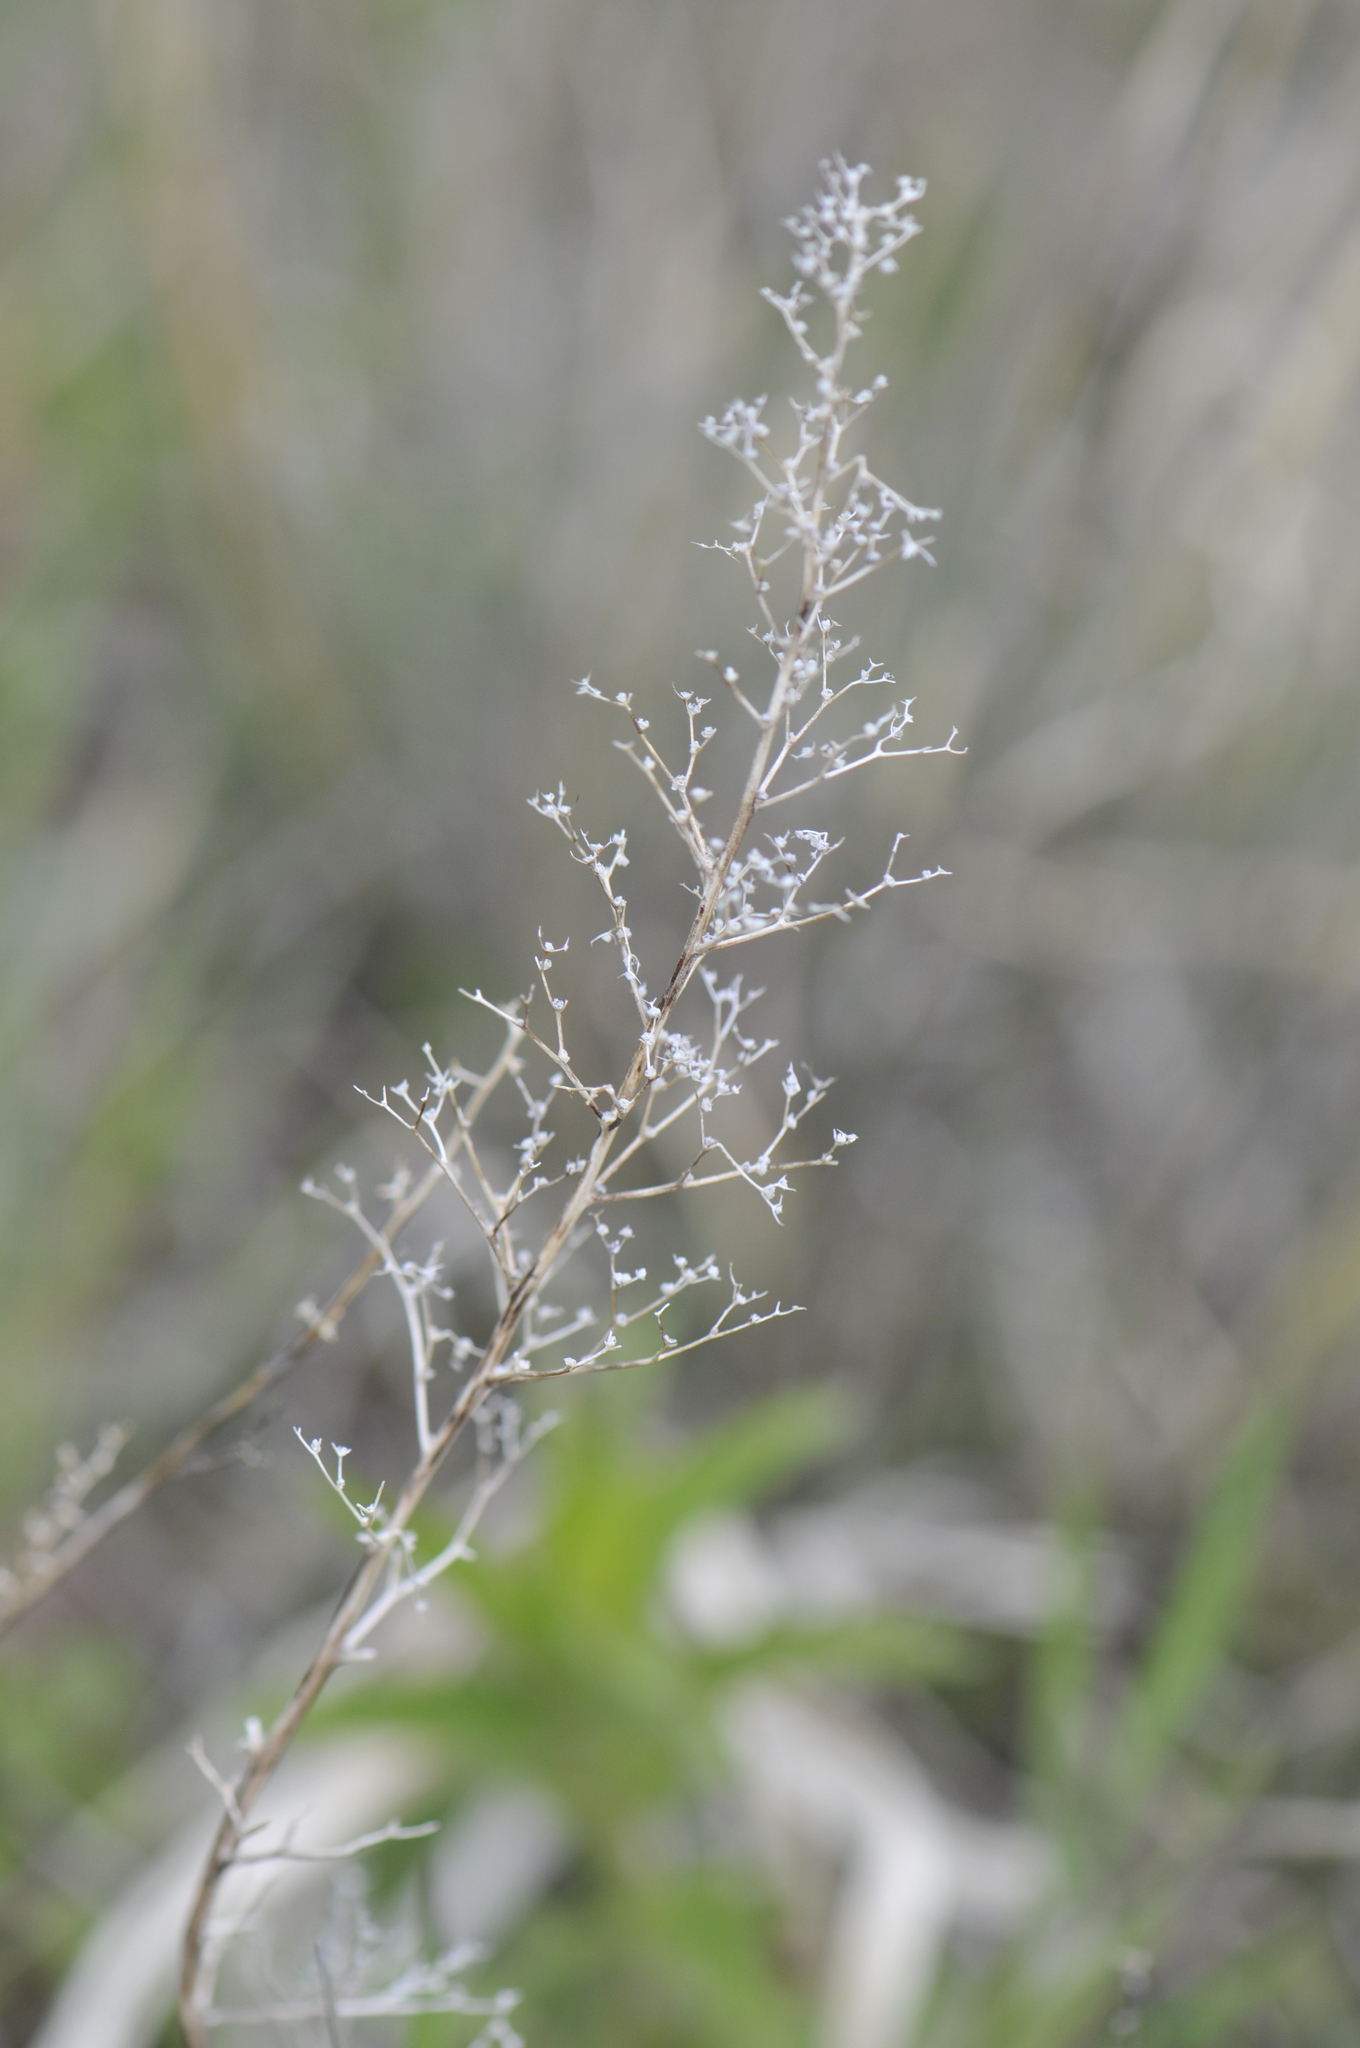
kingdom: Plantae
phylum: Tracheophyta
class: Magnoliopsida
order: Caryophyllales
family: Amaranthaceae
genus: Dysphania
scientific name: Dysphania incisa
